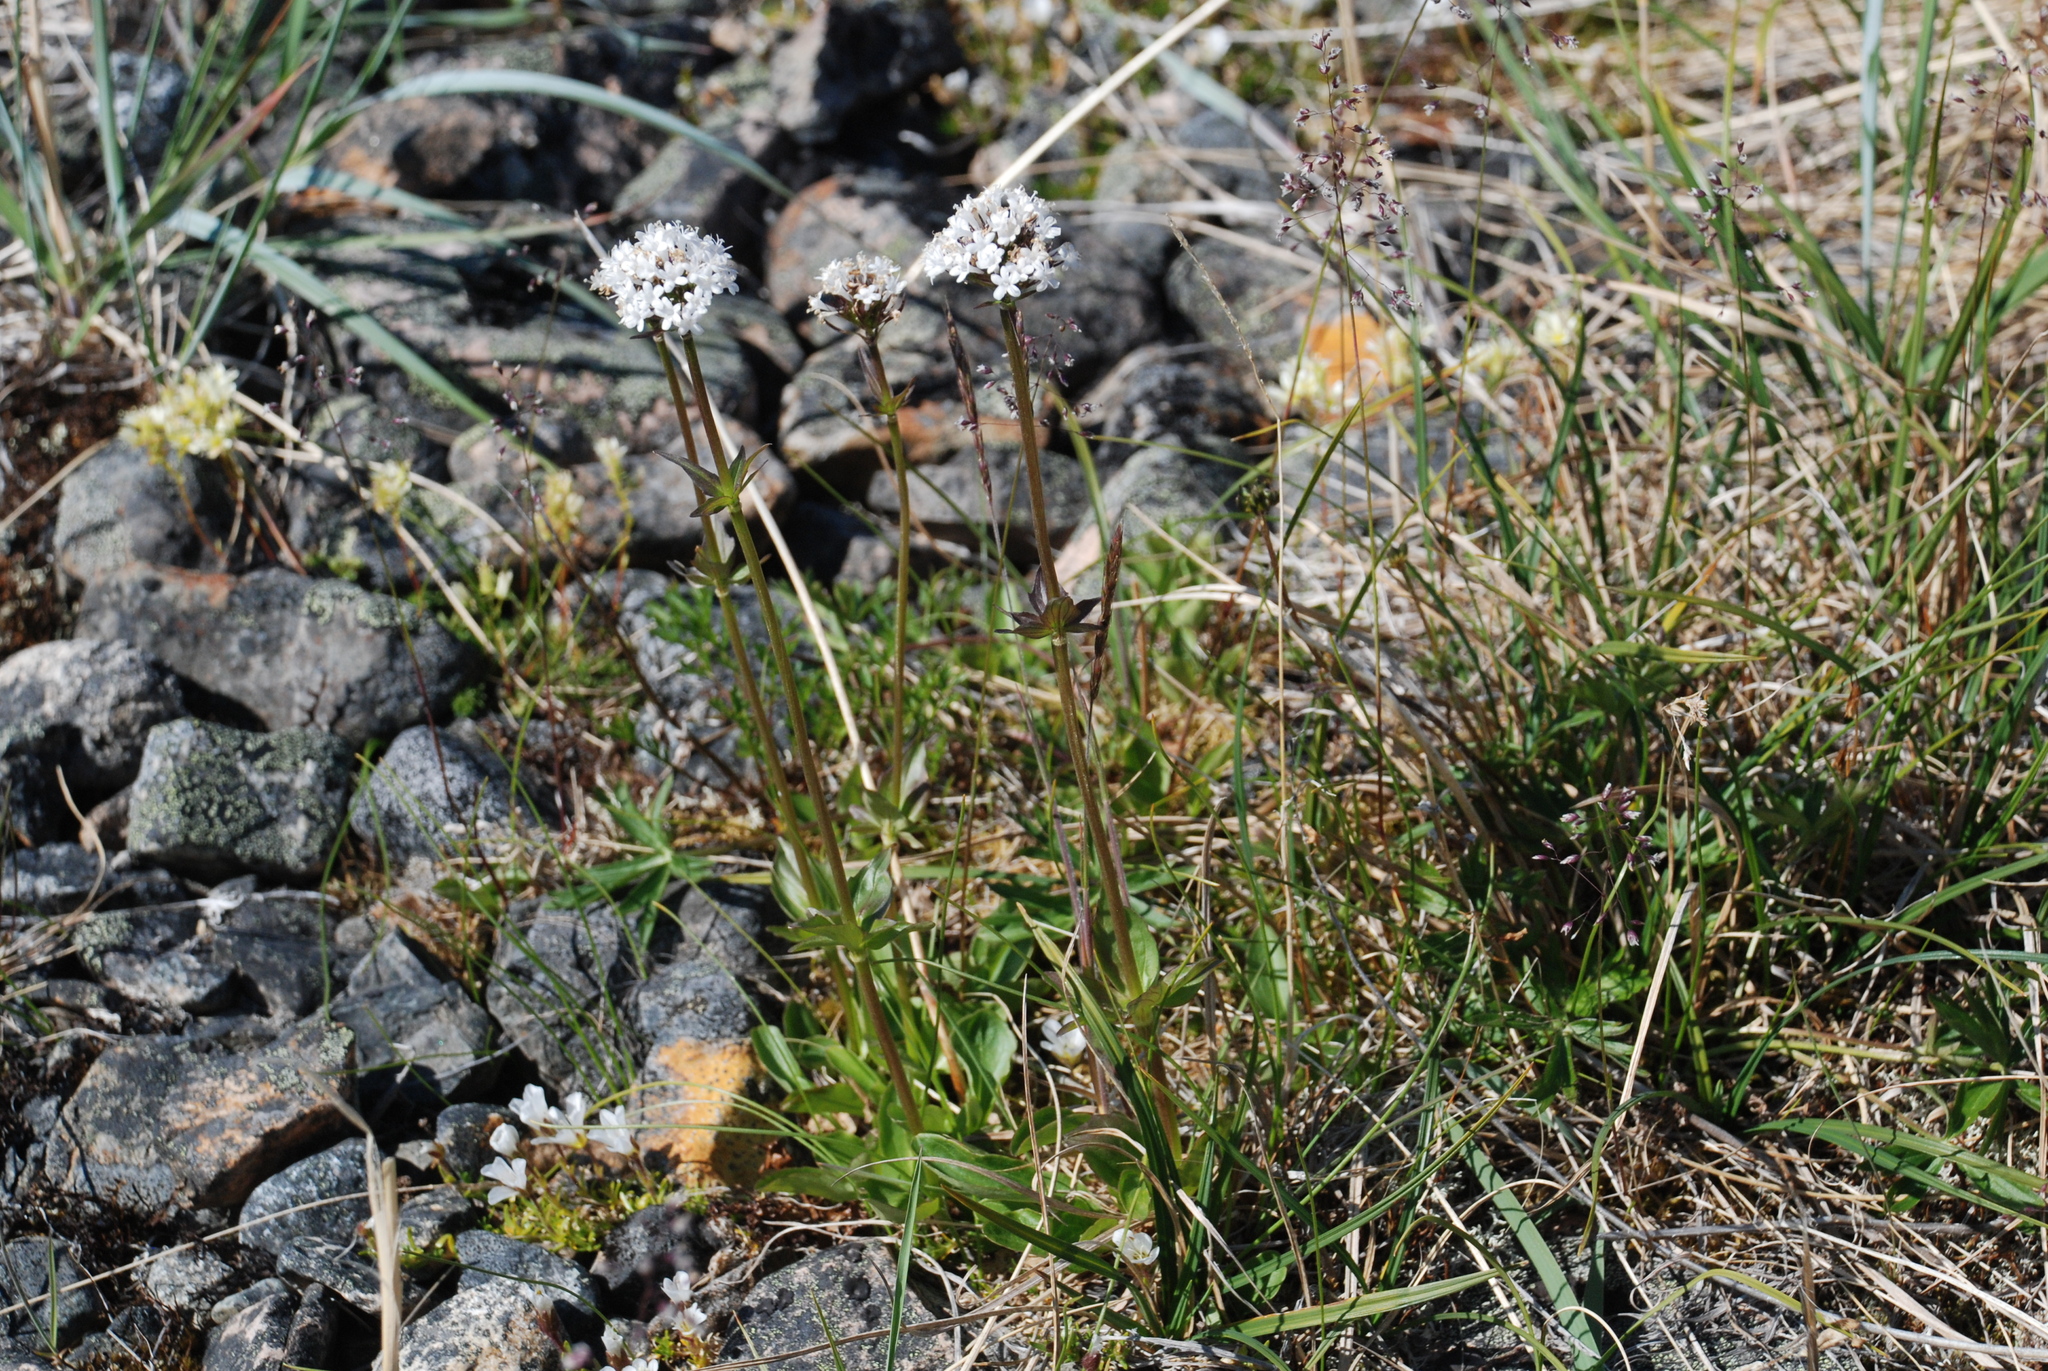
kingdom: Plantae
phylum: Tracheophyta
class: Magnoliopsida
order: Dipsacales
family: Caprifoliaceae
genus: Valeriana
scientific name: Valeriana capitata
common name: Capitate valerian
